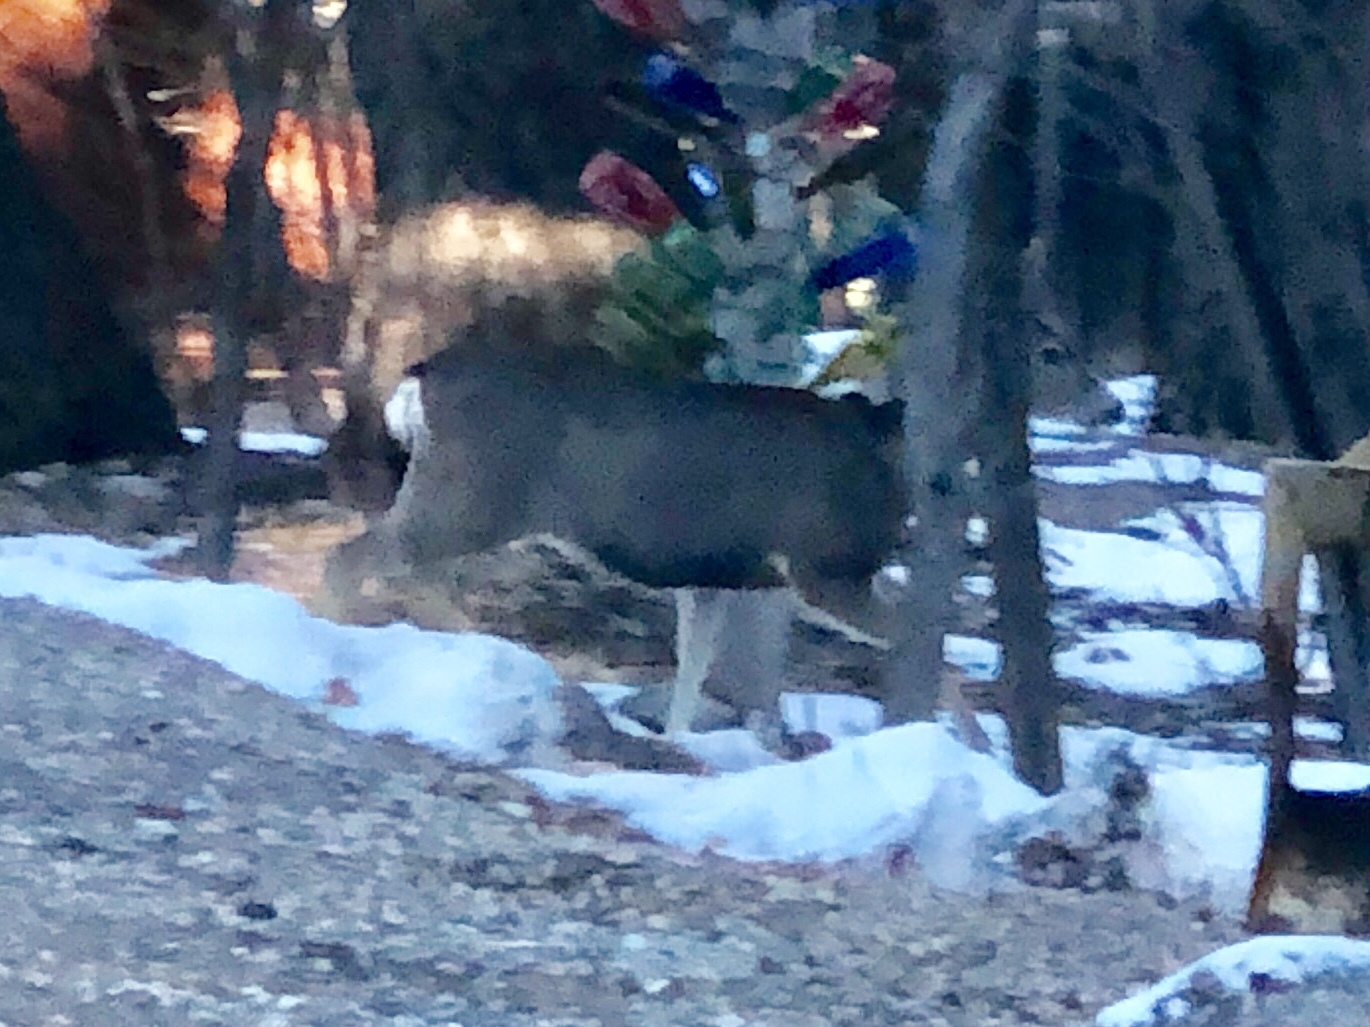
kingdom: Animalia
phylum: Chordata
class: Mammalia
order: Artiodactyla
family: Cervidae
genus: Odocoileus
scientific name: Odocoileus hemionus
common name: Mule deer
